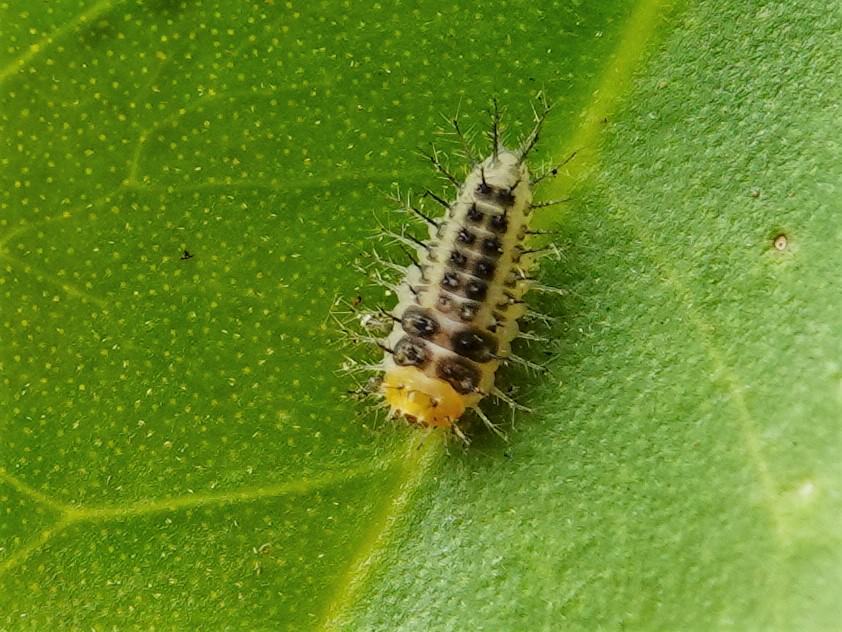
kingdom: Animalia
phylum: Arthropoda
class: Insecta
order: Coleoptera
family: Coccinellidae
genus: Halmus
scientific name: Halmus chalybeus
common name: Steel blue ladybird beetle
